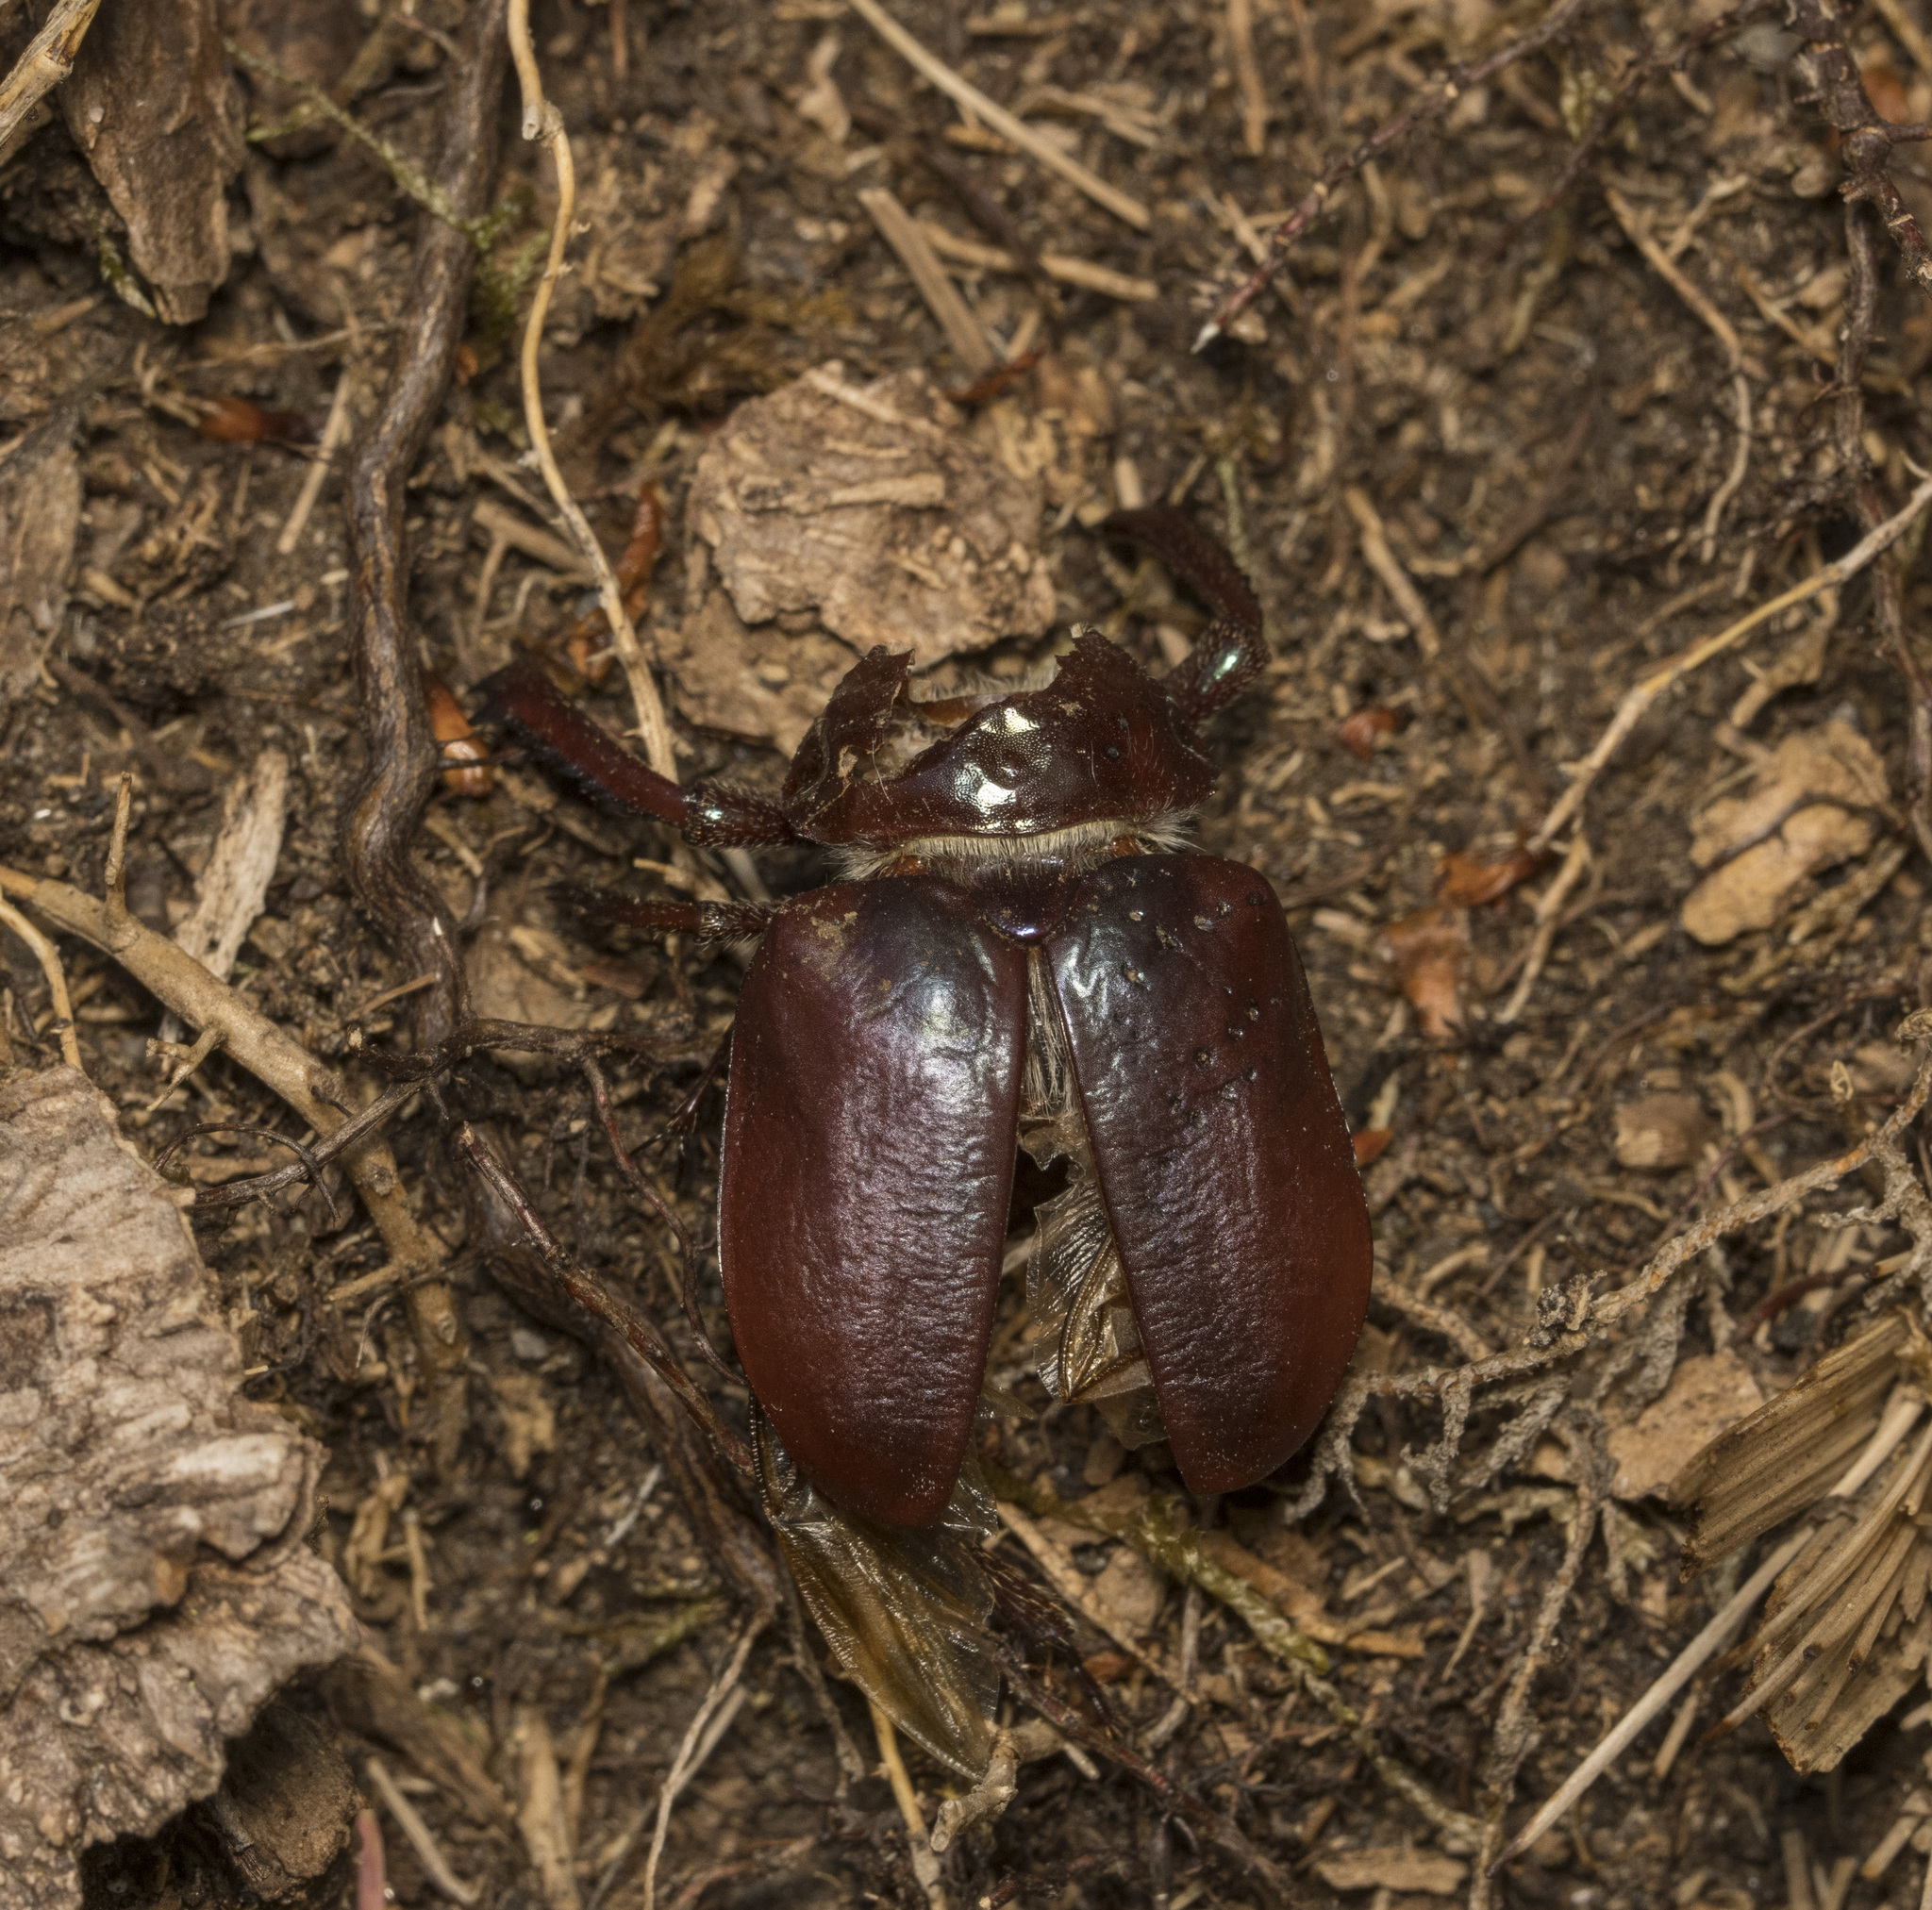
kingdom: Animalia
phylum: Arthropoda
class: Insecta
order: Coleoptera
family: Lucanidae
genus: Chiasognathus
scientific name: Chiasognathus latreillei
